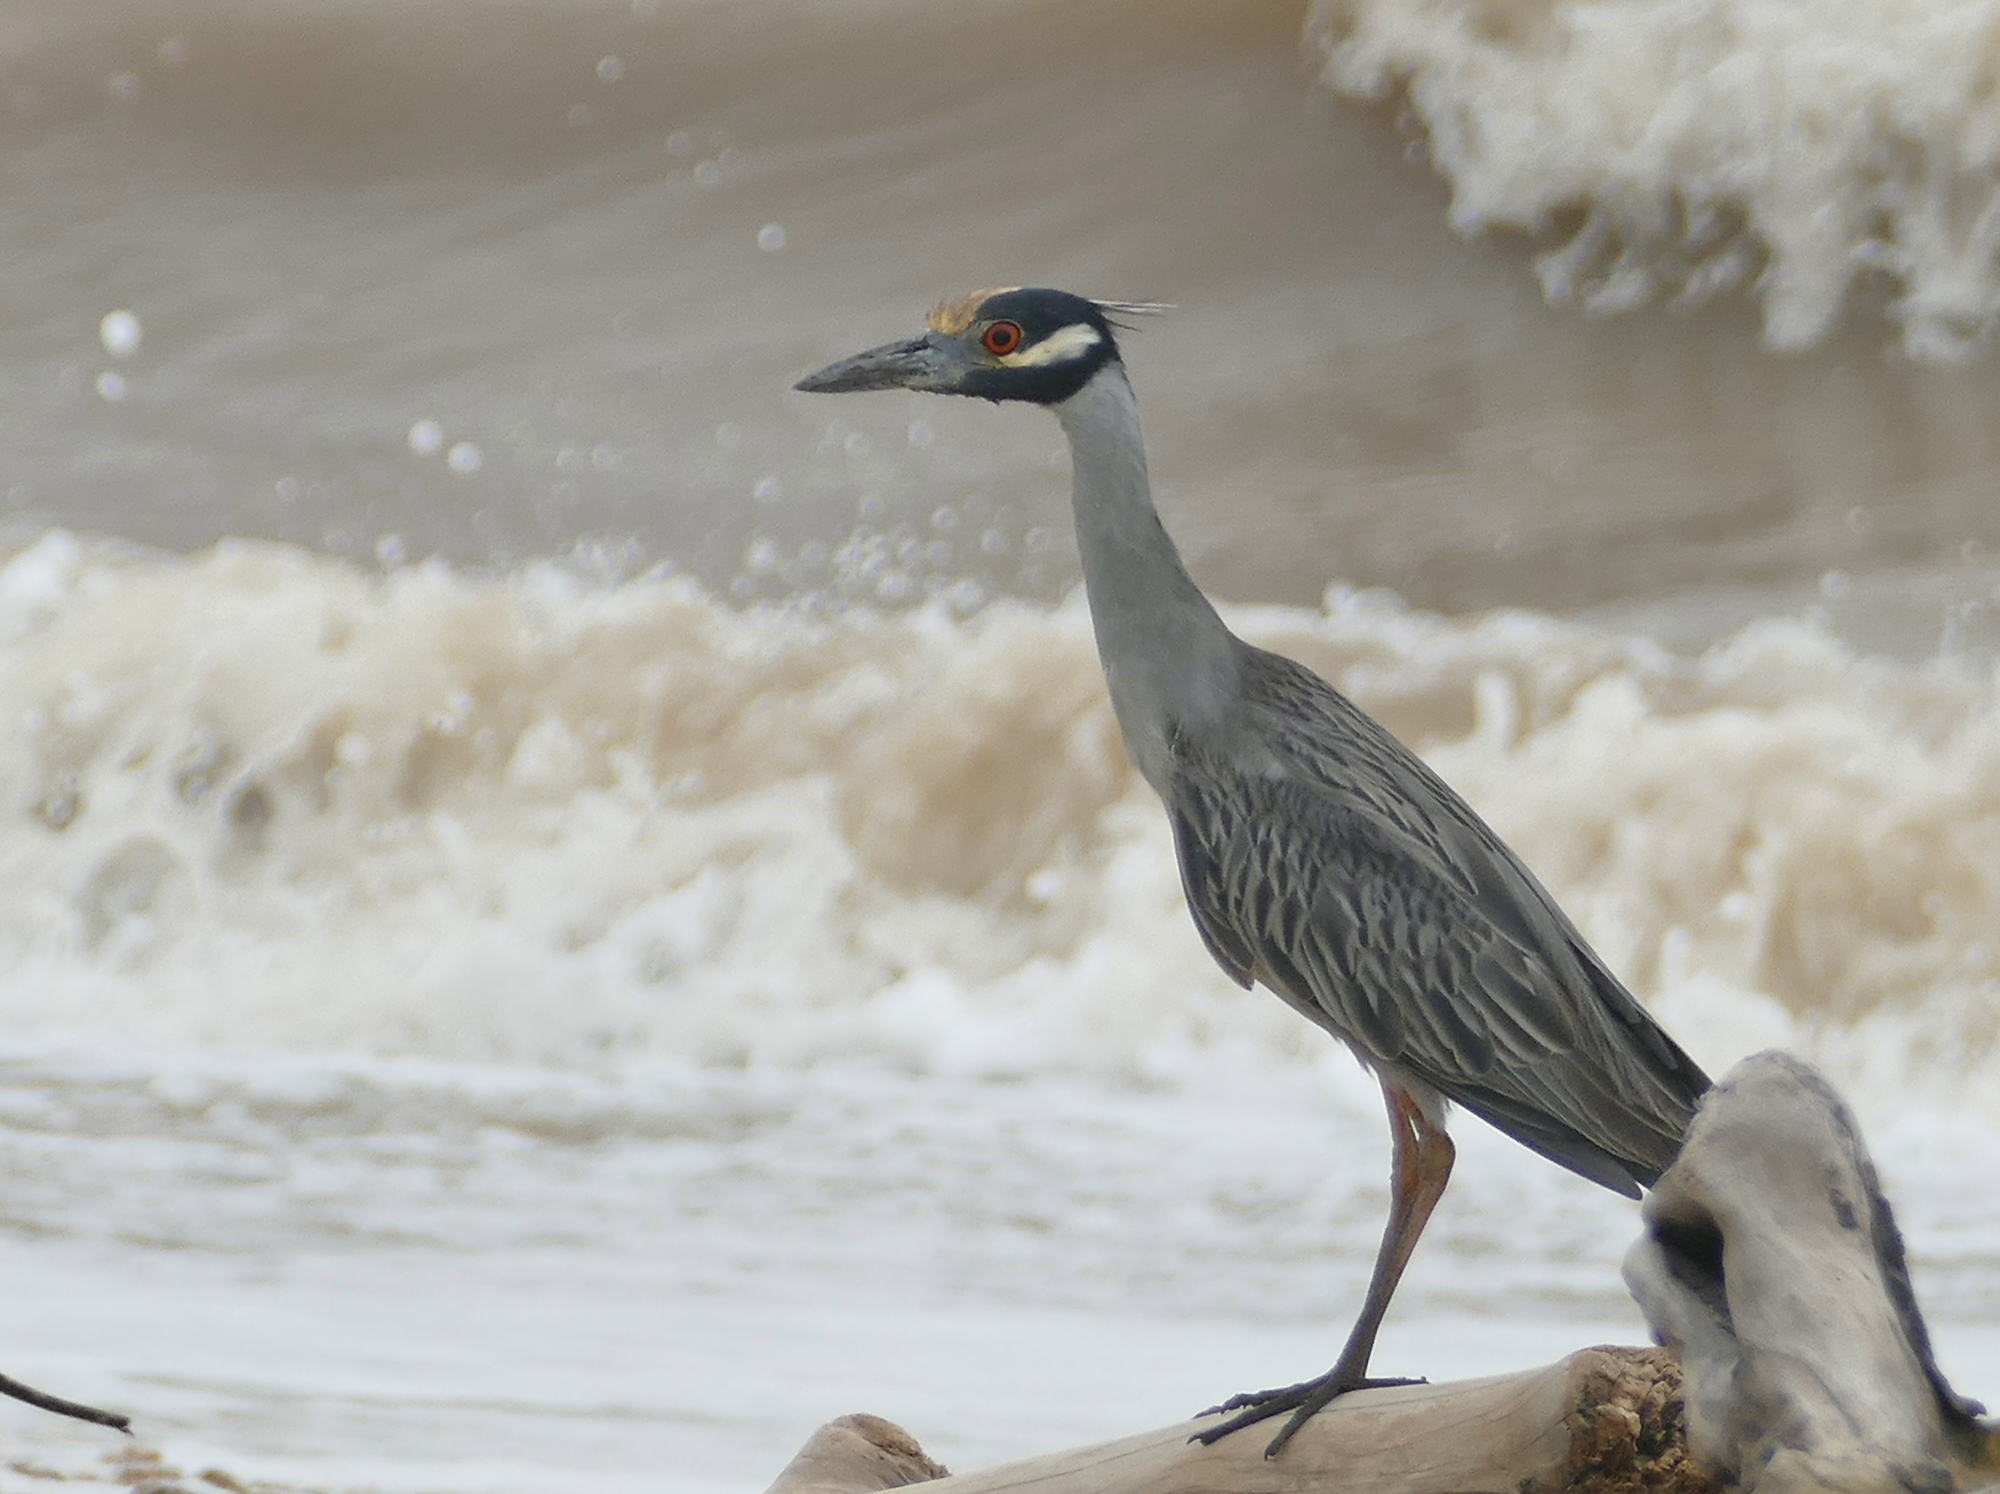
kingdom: Animalia
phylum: Chordata
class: Aves
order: Pelecaniformes
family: Ardeidae
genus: Nyctanassa
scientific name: Nyctanassa violacea
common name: Yellow-crowned night heron
